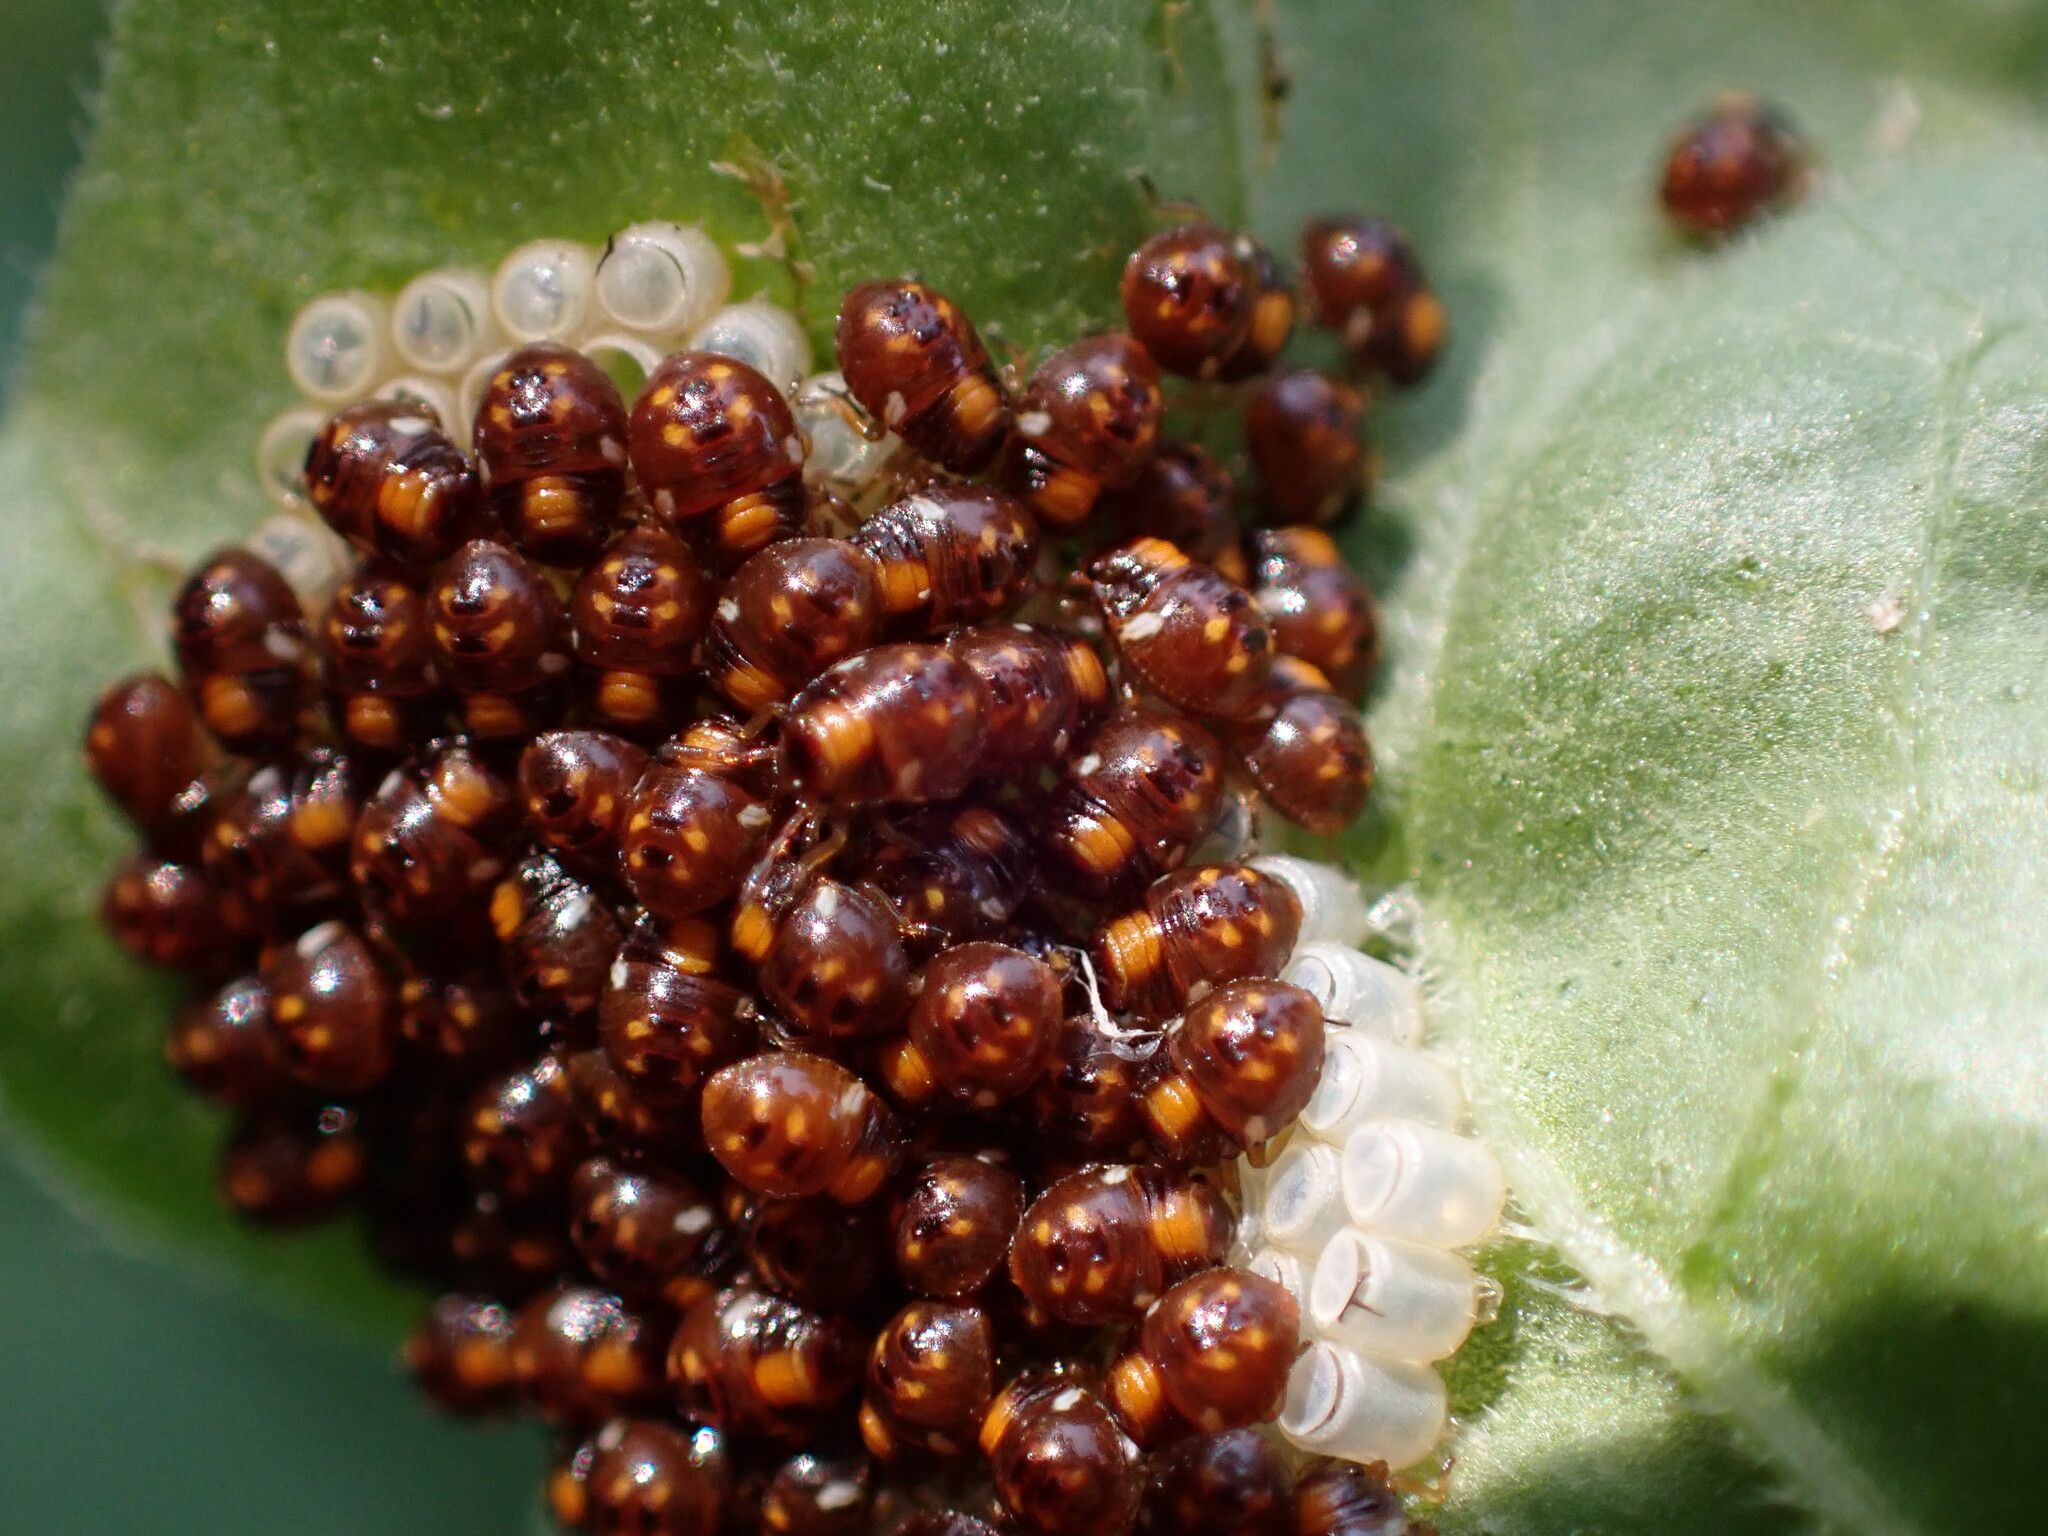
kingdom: Animalia
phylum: Arthropoda
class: Insecta
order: Hemiptera
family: Pentatomidae
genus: Nezara
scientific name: Nezara viridula
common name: Southern green stink bug
